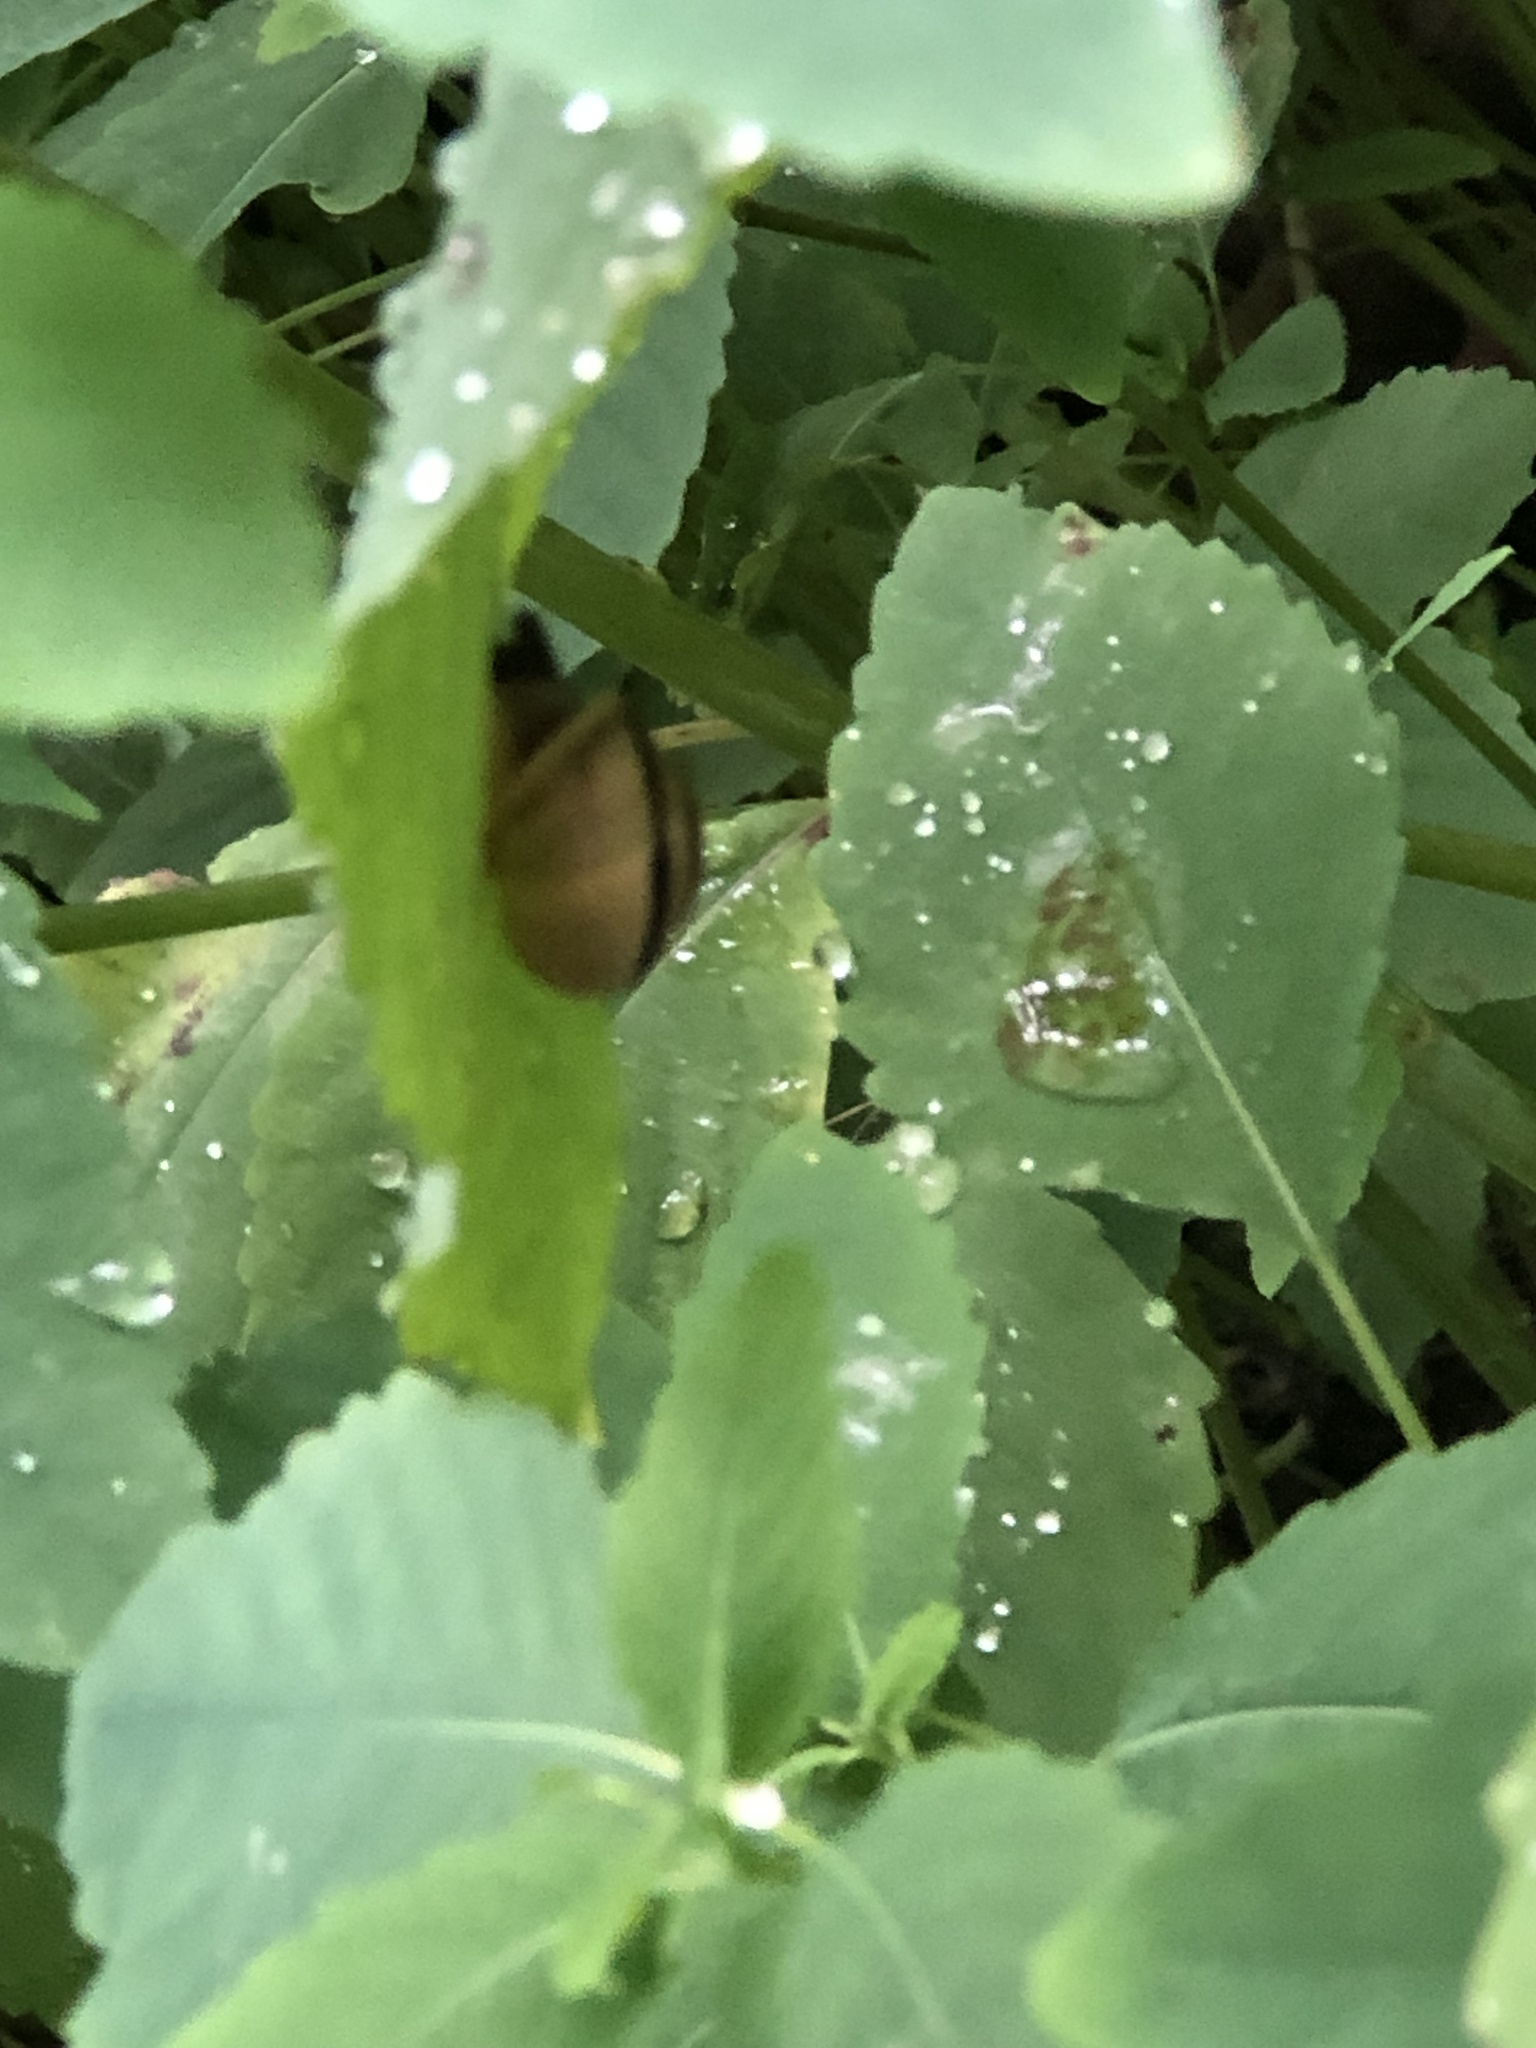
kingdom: Animalia
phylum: Mollusca
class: Gastropoda
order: Stylommatophora
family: Helicidae
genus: Cepaea
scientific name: Cepaea nemoralis
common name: Grovesnail
